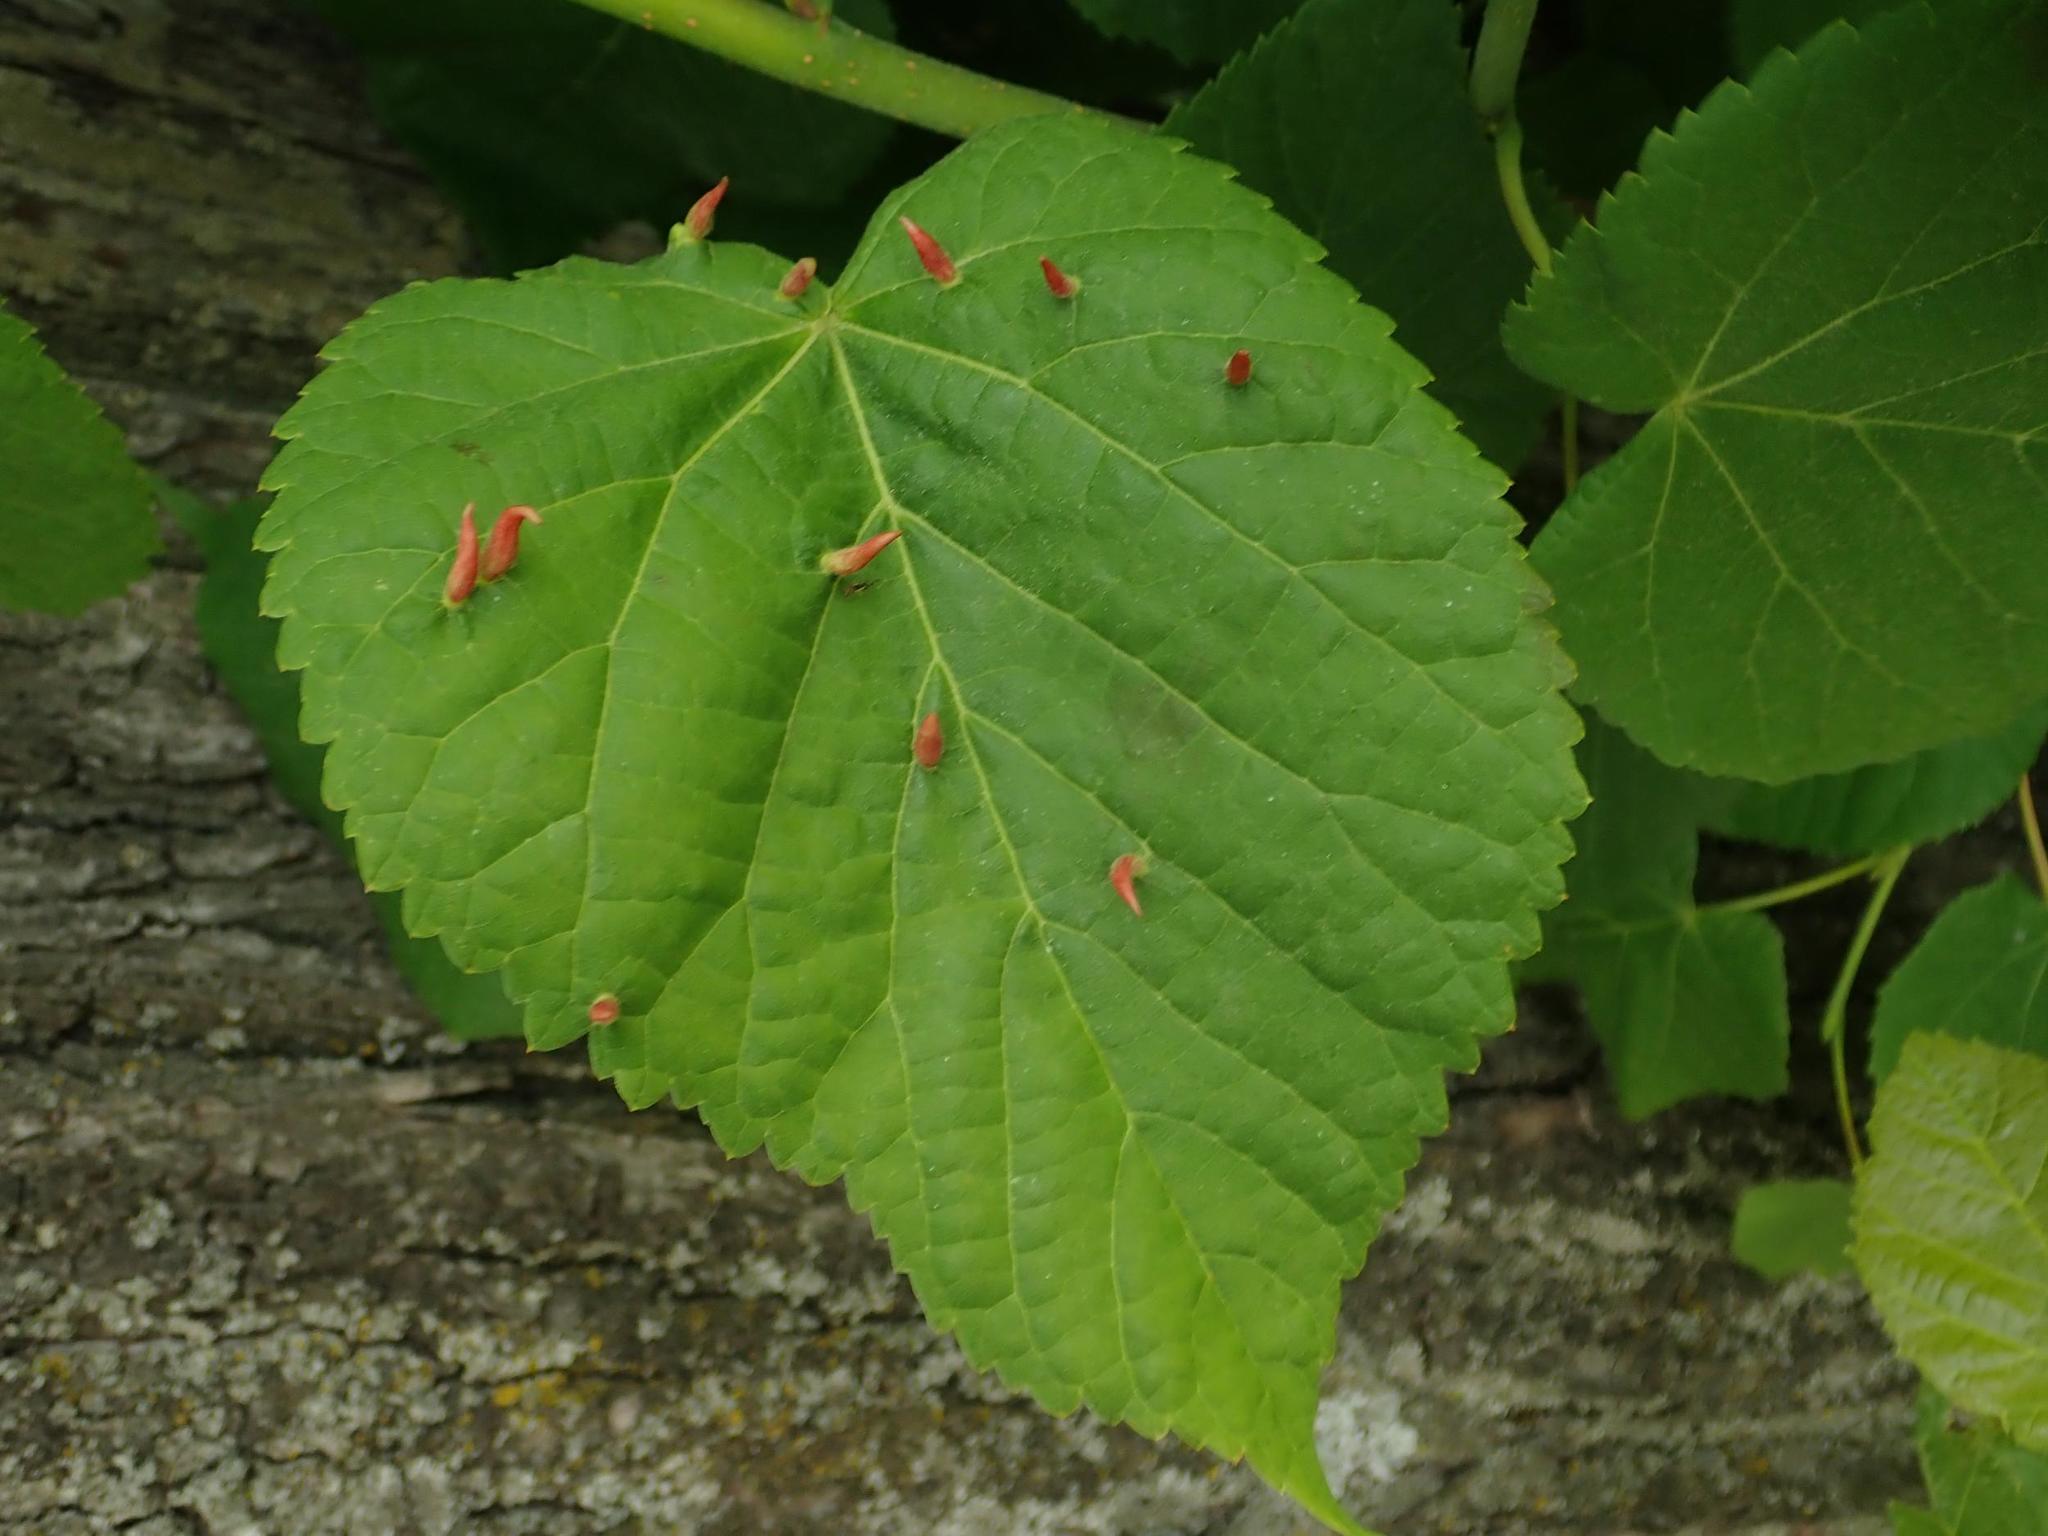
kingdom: Plantae
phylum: Tracheophyta
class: Magnoliopsida
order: Malvales
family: Malvaceae
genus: Tilia
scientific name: Tilia cordata
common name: Small-leaved lime
